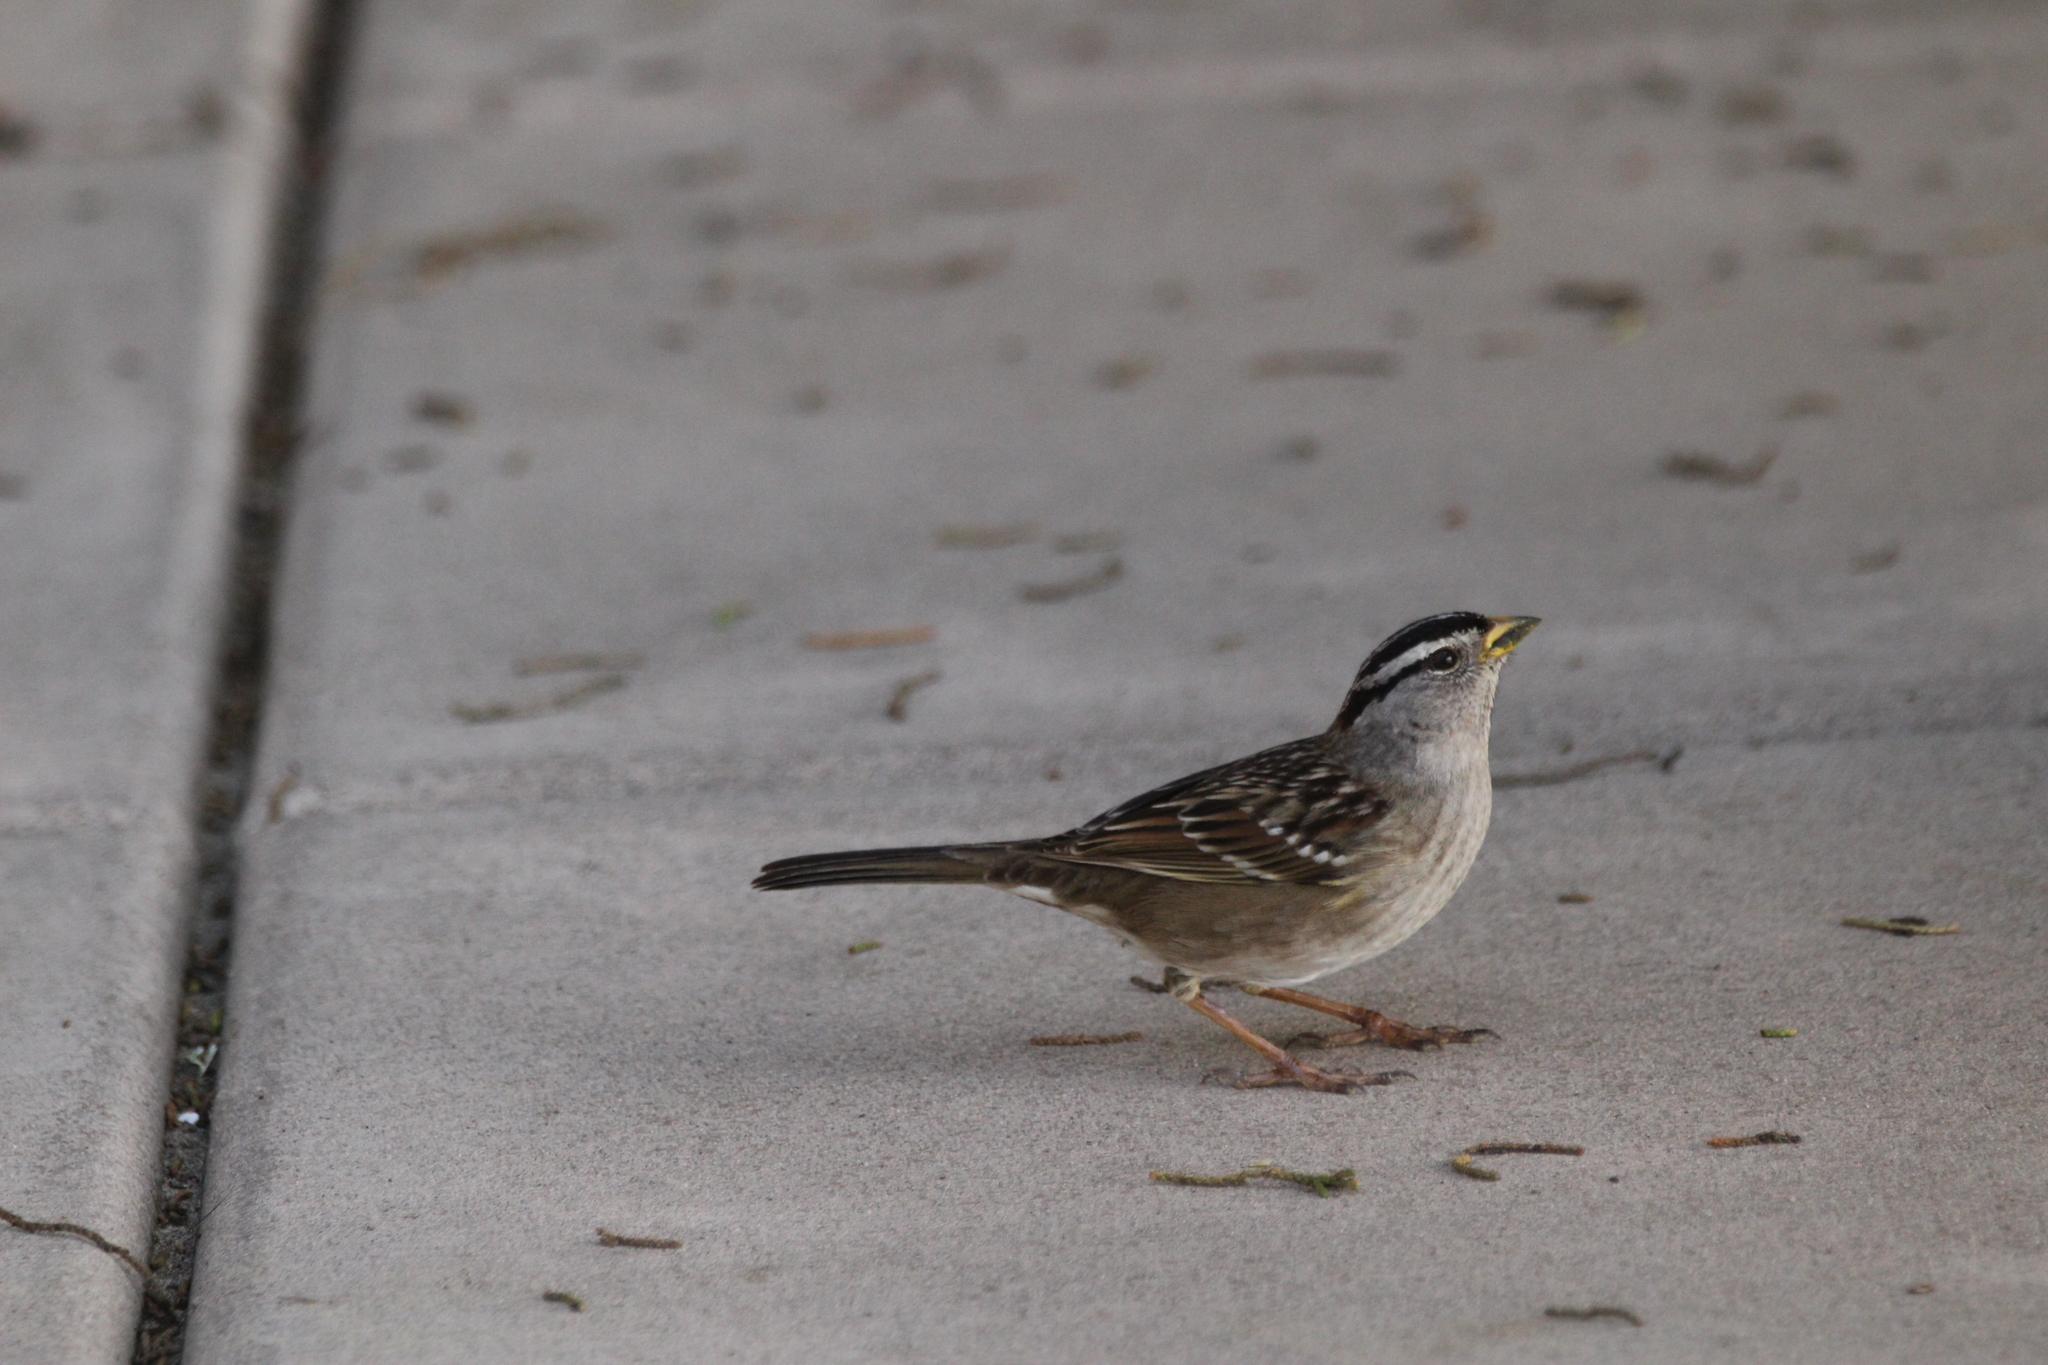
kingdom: Animalia
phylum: Chordata
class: Aves
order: Passeriformes
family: Passerellidae
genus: Zonotrichia
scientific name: Zonotrichia leucophrys
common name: White-crowned sparrow
